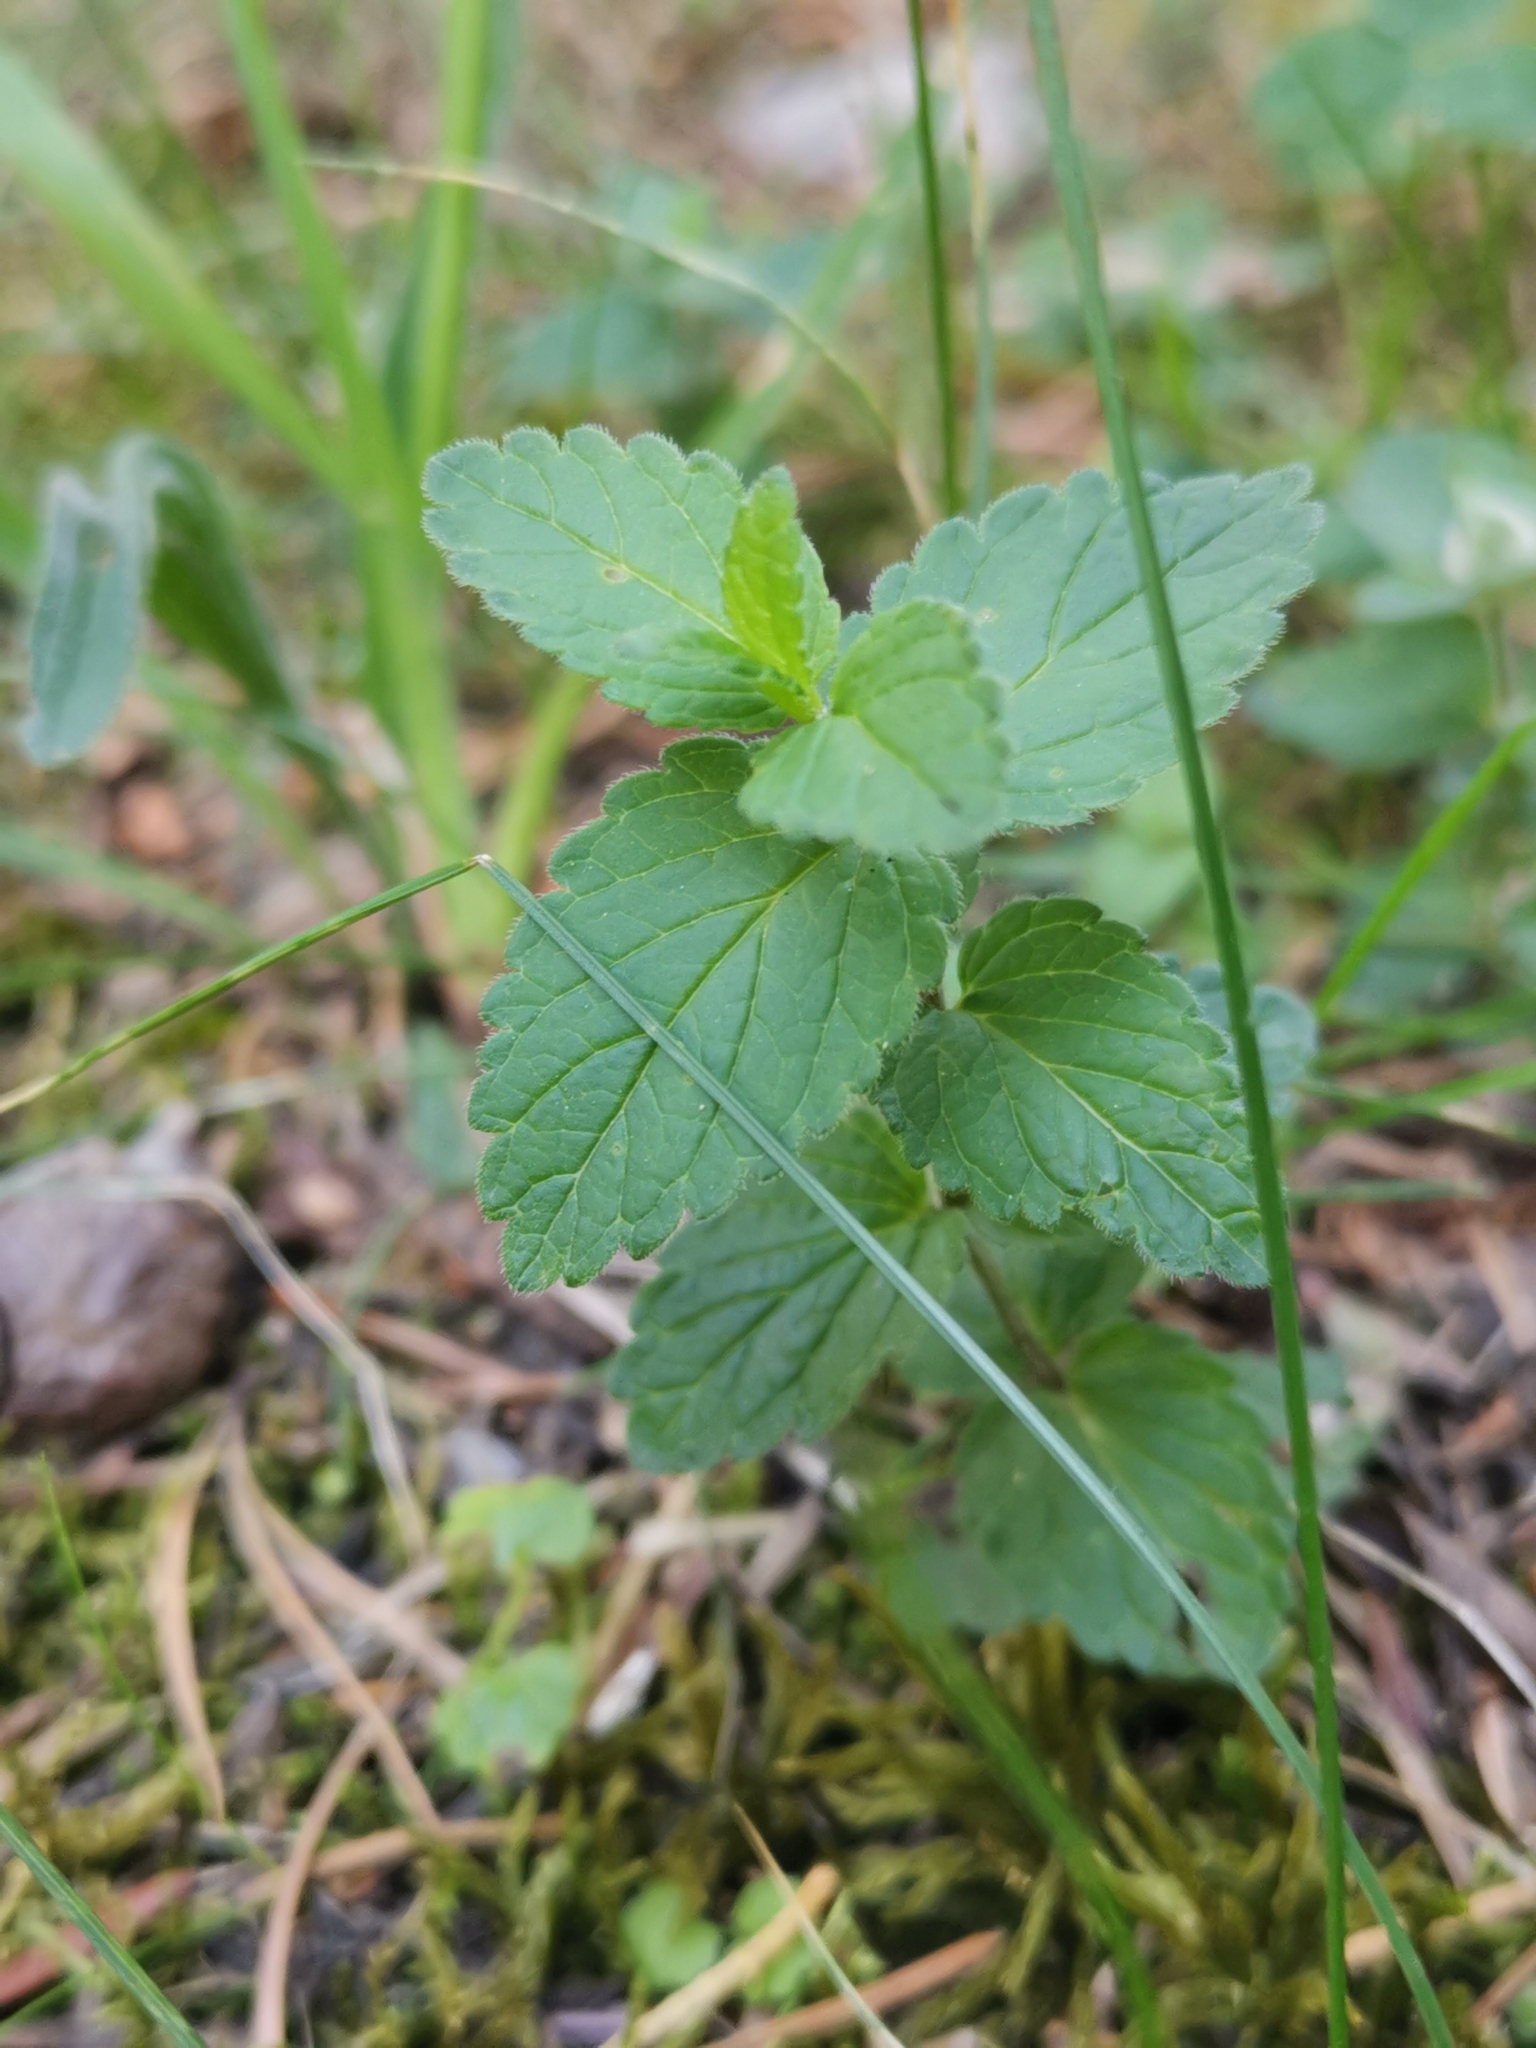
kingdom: Plantae
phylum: Tracheophyta
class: Magnoliopsida
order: Lamiales
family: Plantaginaceae
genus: Veronica
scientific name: Veronica chamaedrys
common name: Germander speedwell
